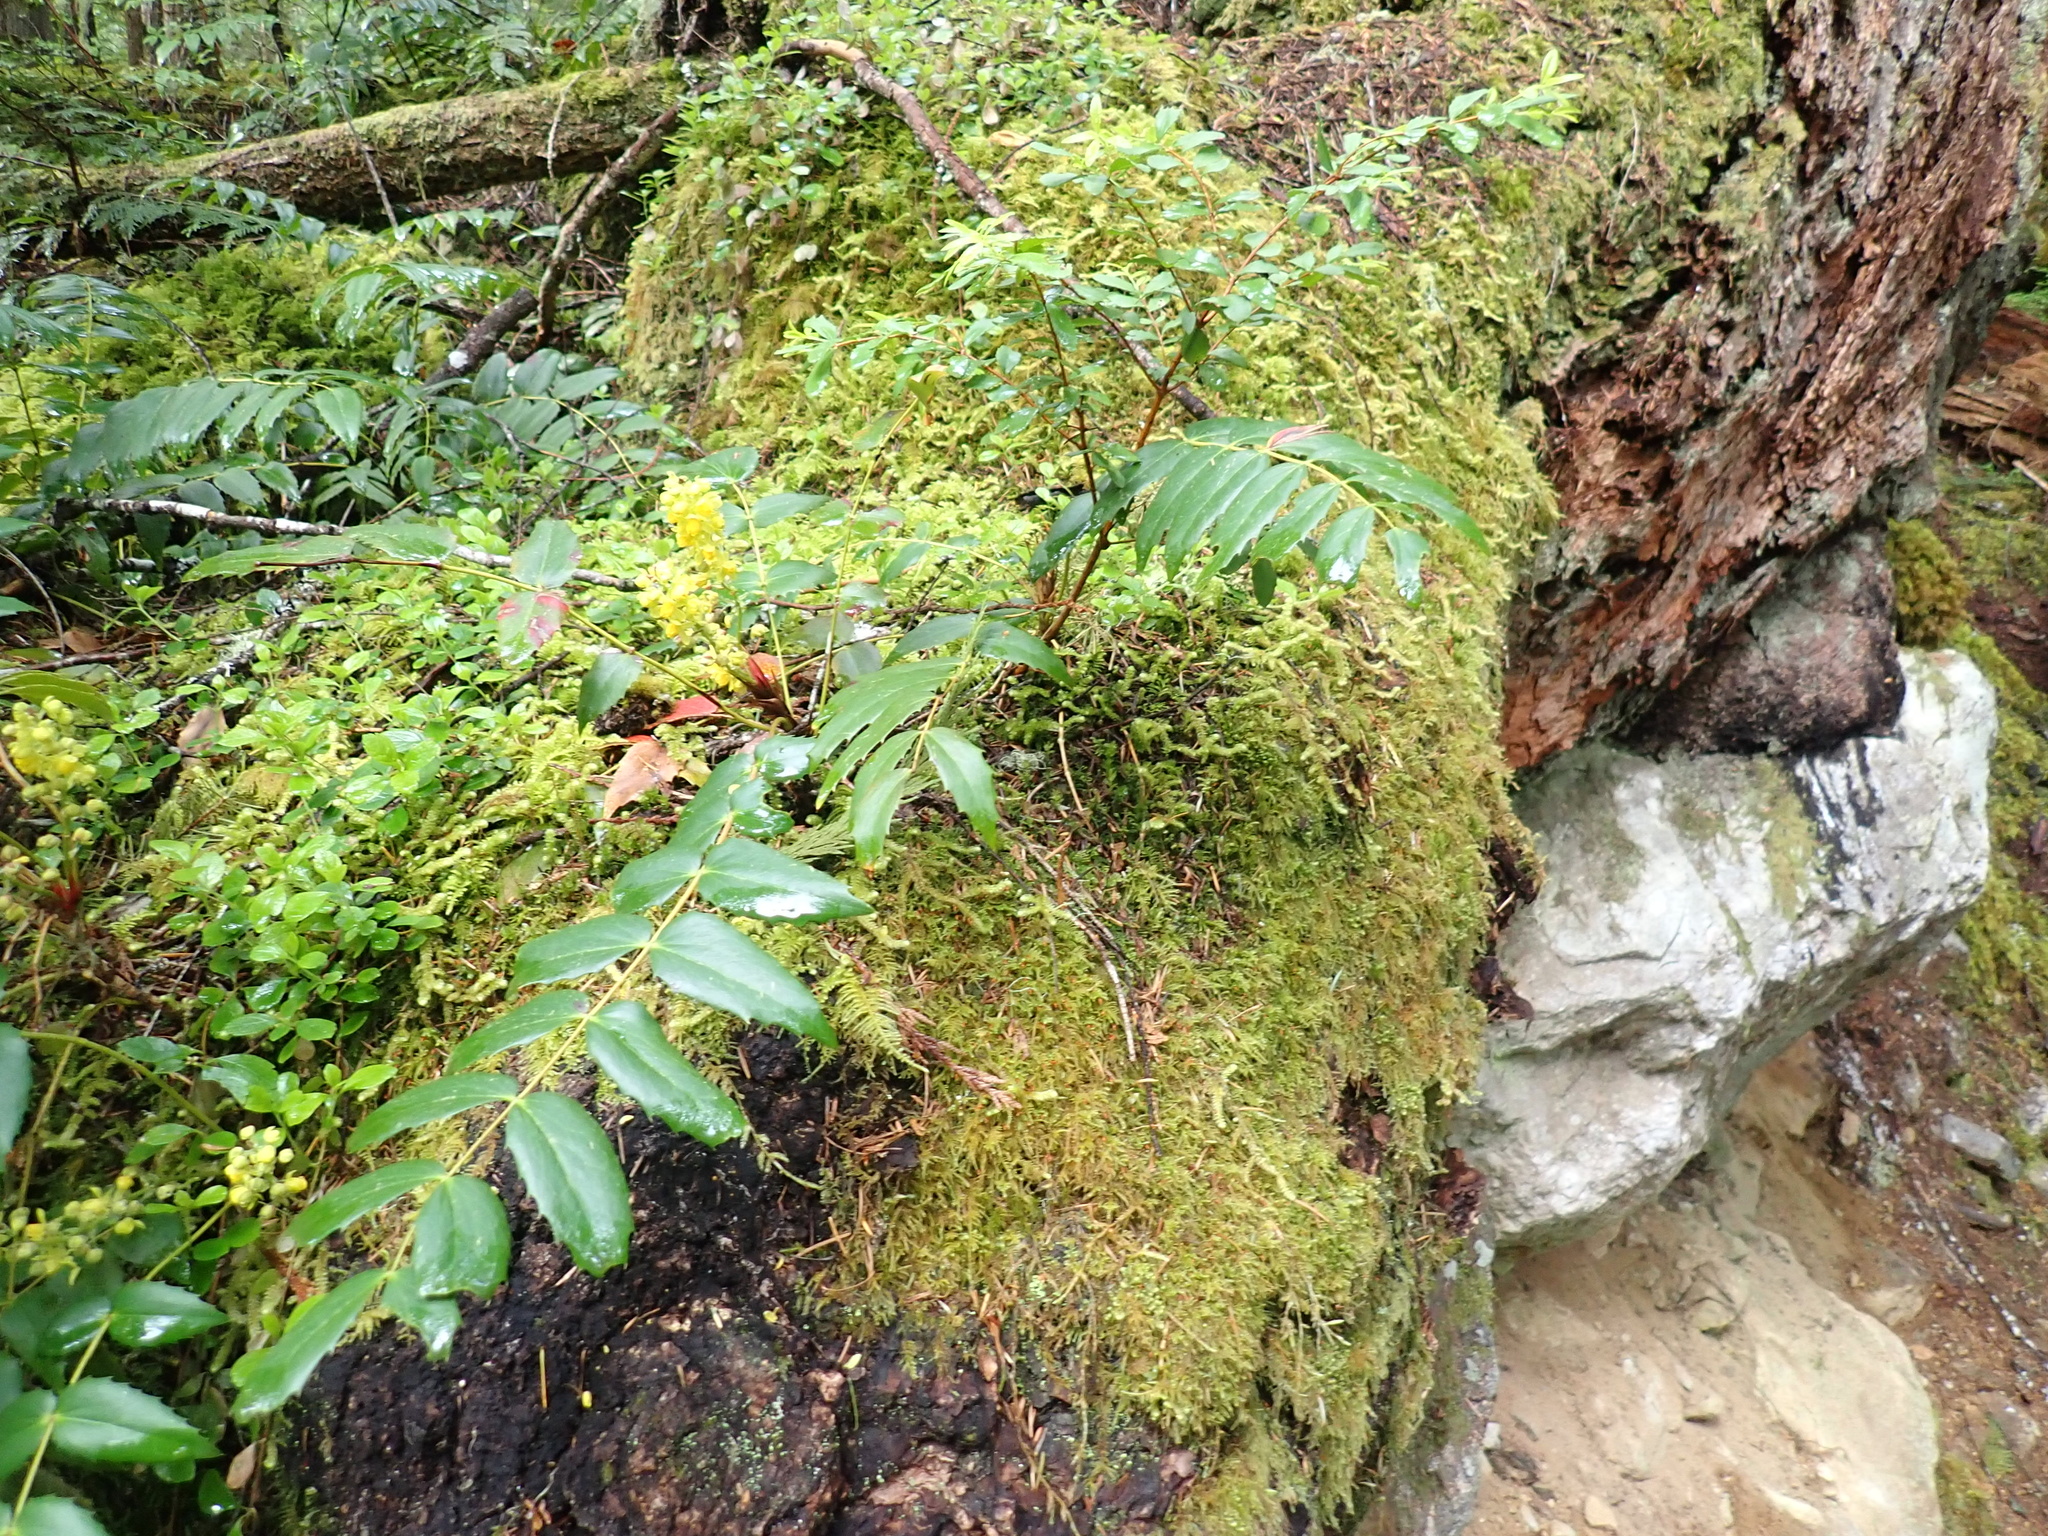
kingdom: Plantae
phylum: Tracheophyta
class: Magnoliopsida
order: Ranunculales
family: Berberidaceae
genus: Mahonia
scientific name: Mahonia nervosa
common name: Cascade oregon-grape
